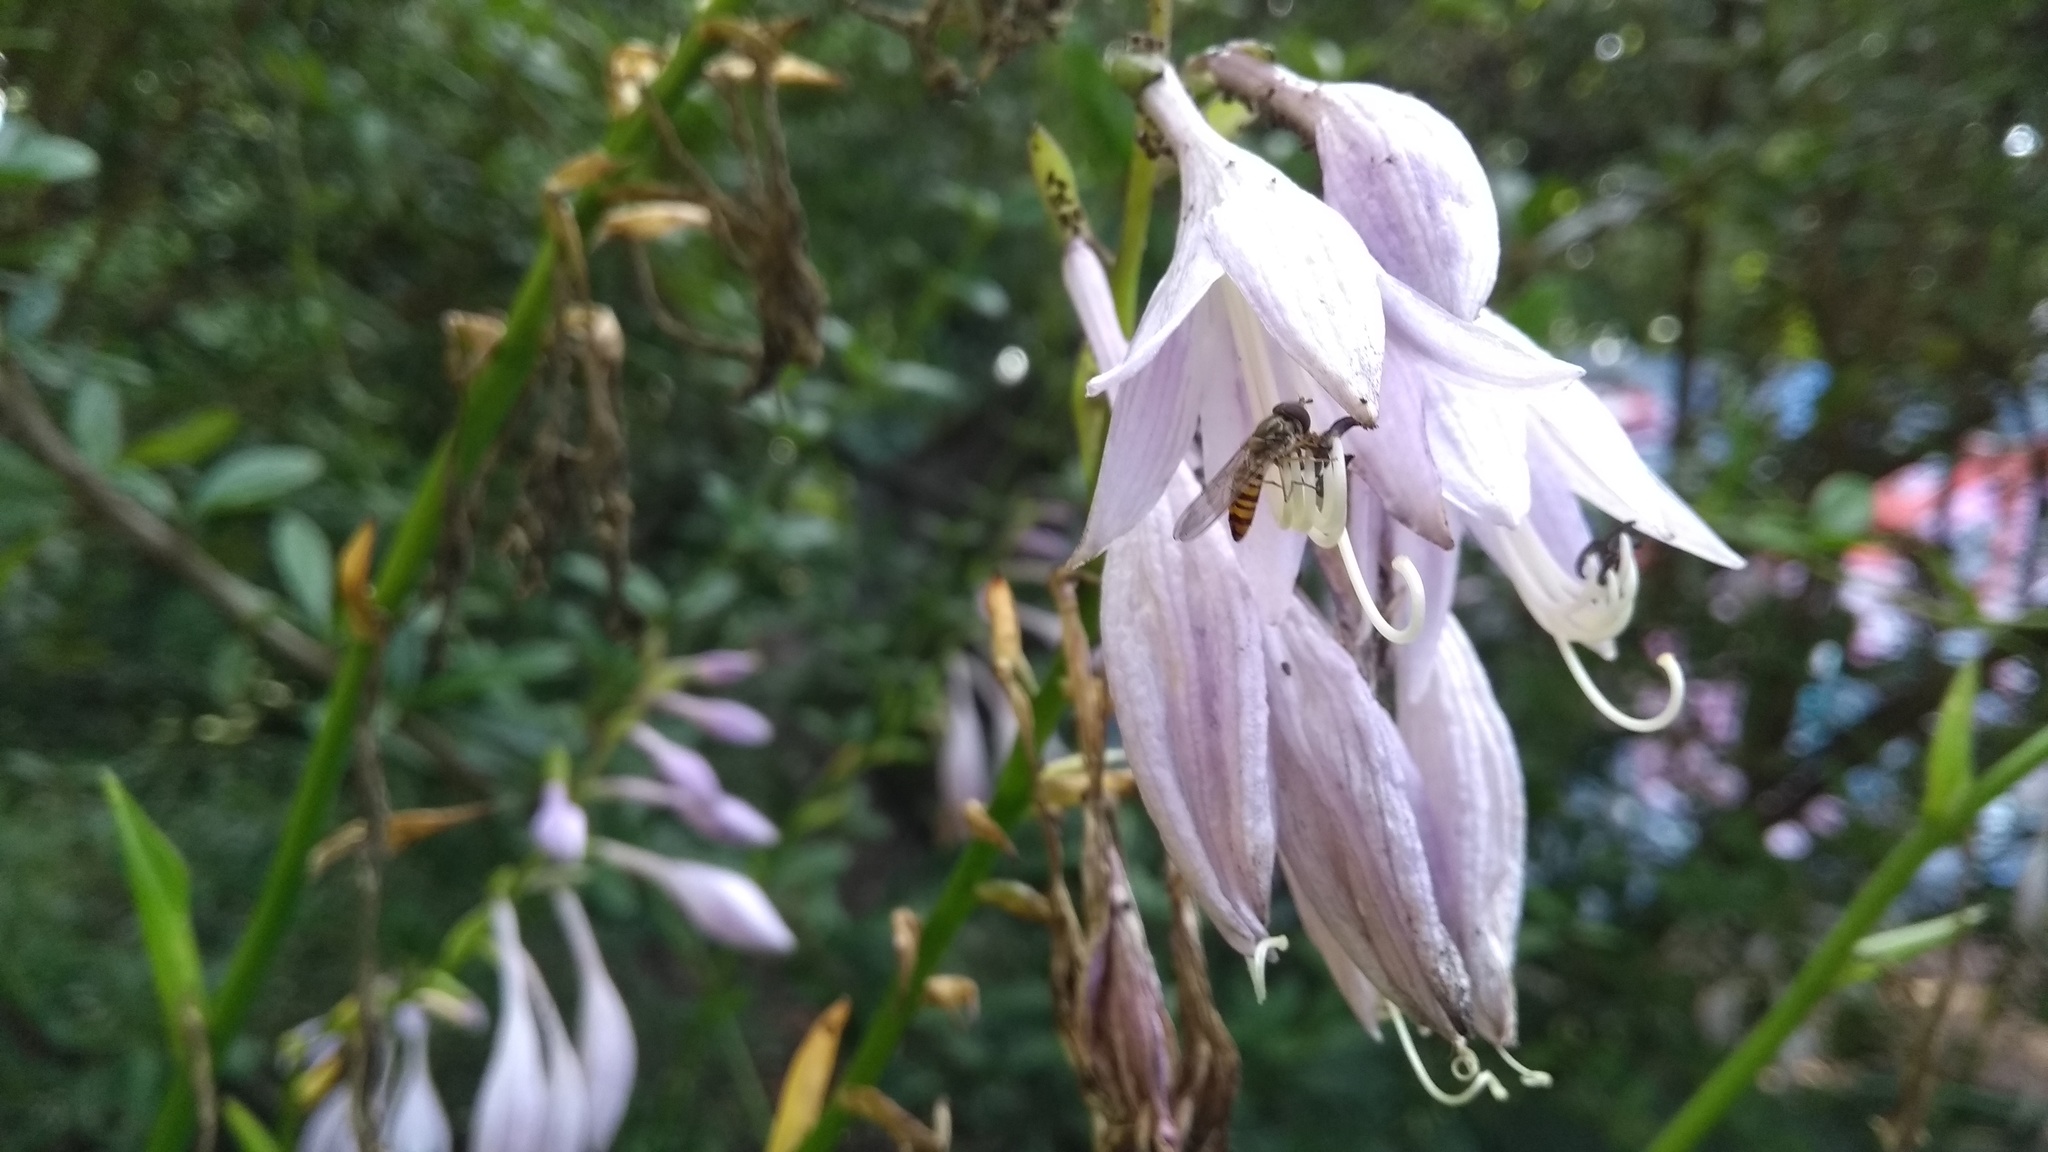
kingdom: Animalia
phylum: Arthropoda
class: Insecta
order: Diptera
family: Syrphidae
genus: Episyrphus
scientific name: Episyrphus balteatus
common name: Marmalade hoverfly
